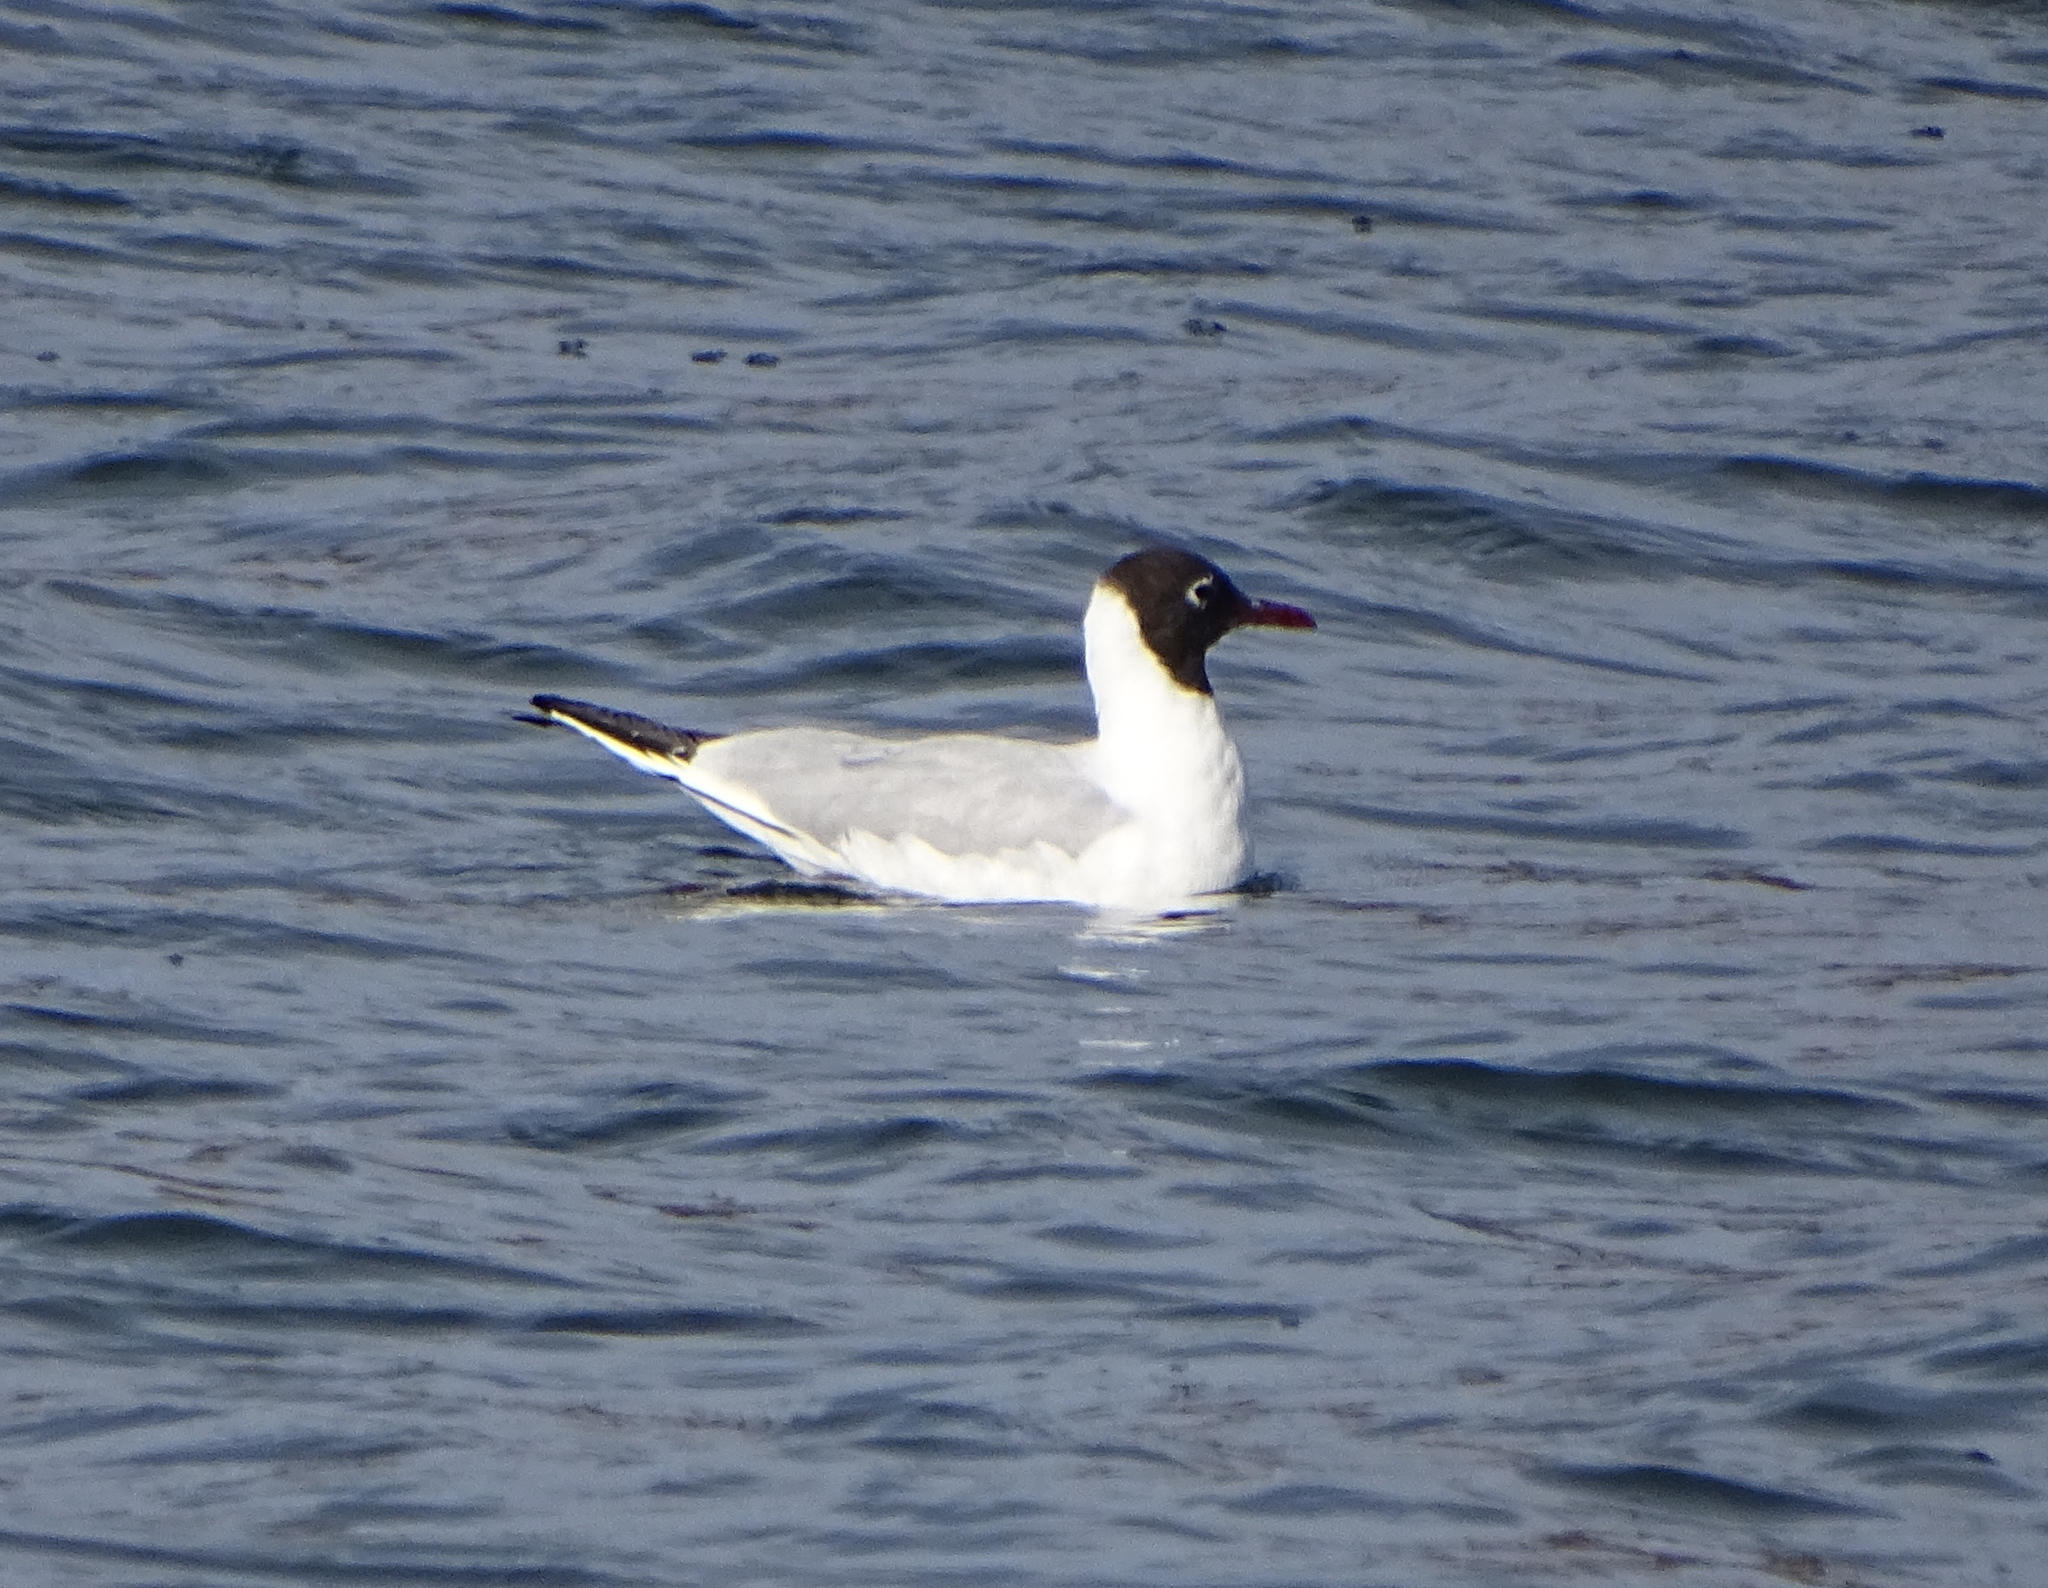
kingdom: Animalia
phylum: Chordata
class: Aves
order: Charadriiformes
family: Laridae
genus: Chroicocephalus
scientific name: Chroicocephalus ridibundus
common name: Black-headed gull
